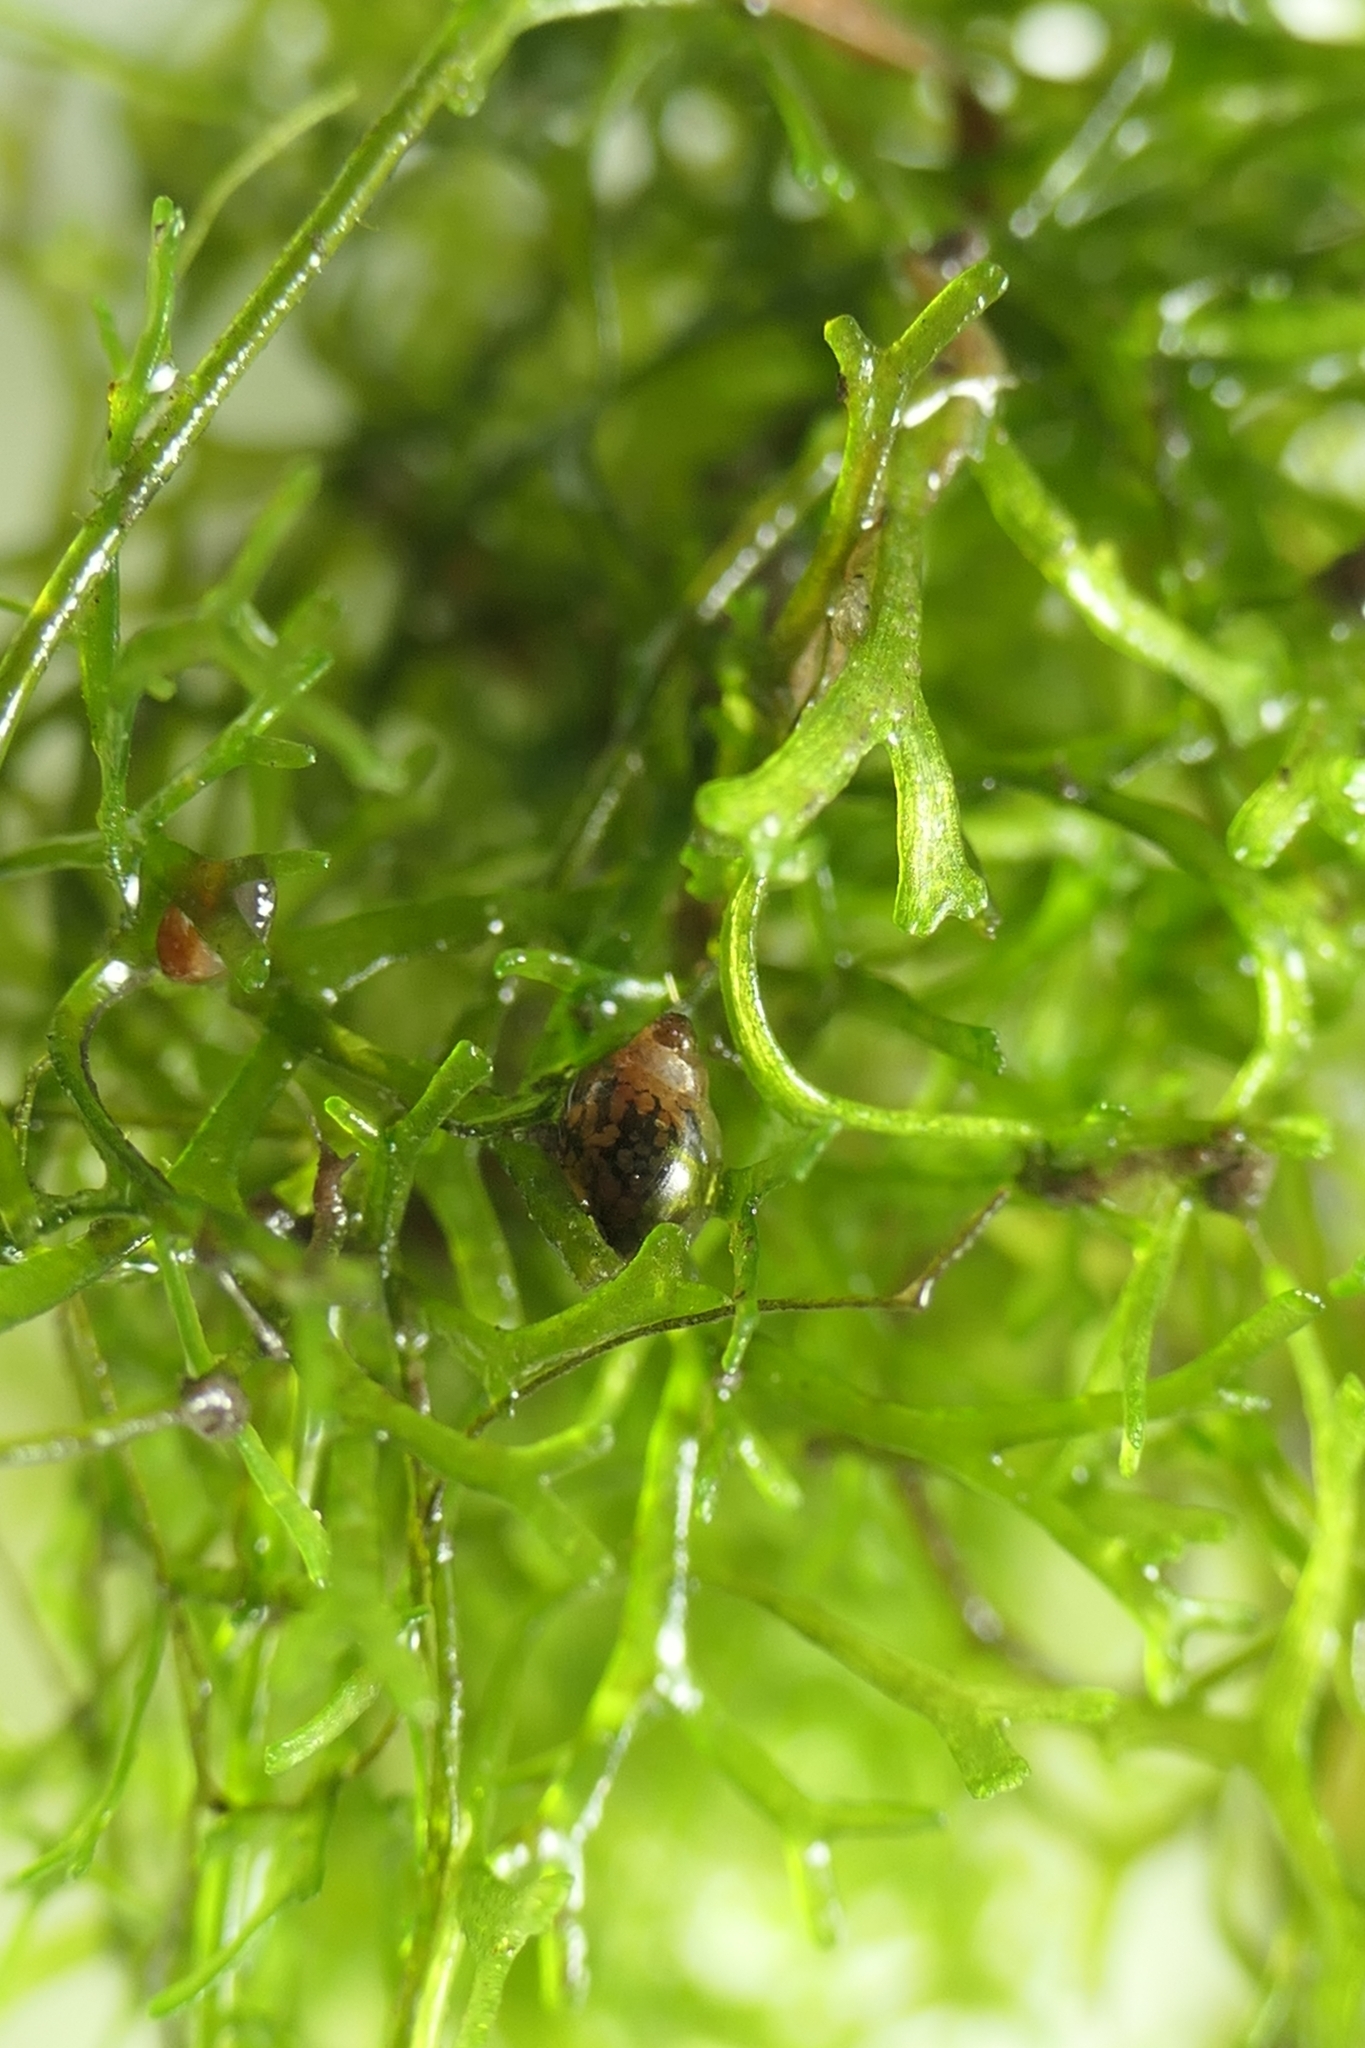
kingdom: Animalia
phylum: Mollusca
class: Gastropoda
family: Physidae
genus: Physella
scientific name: Physella acuta
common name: European physa
